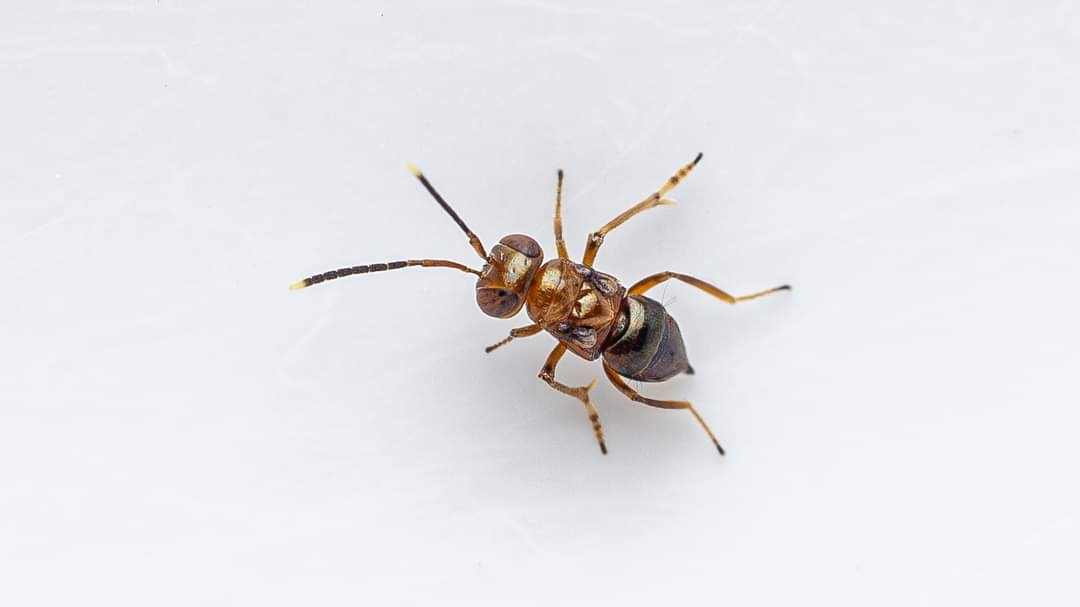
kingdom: Animalia
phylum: Arthropoda
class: Insecta
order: Hymenoptera
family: Encyrtidae
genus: Aglyptus
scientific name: Aglyptus rufus
